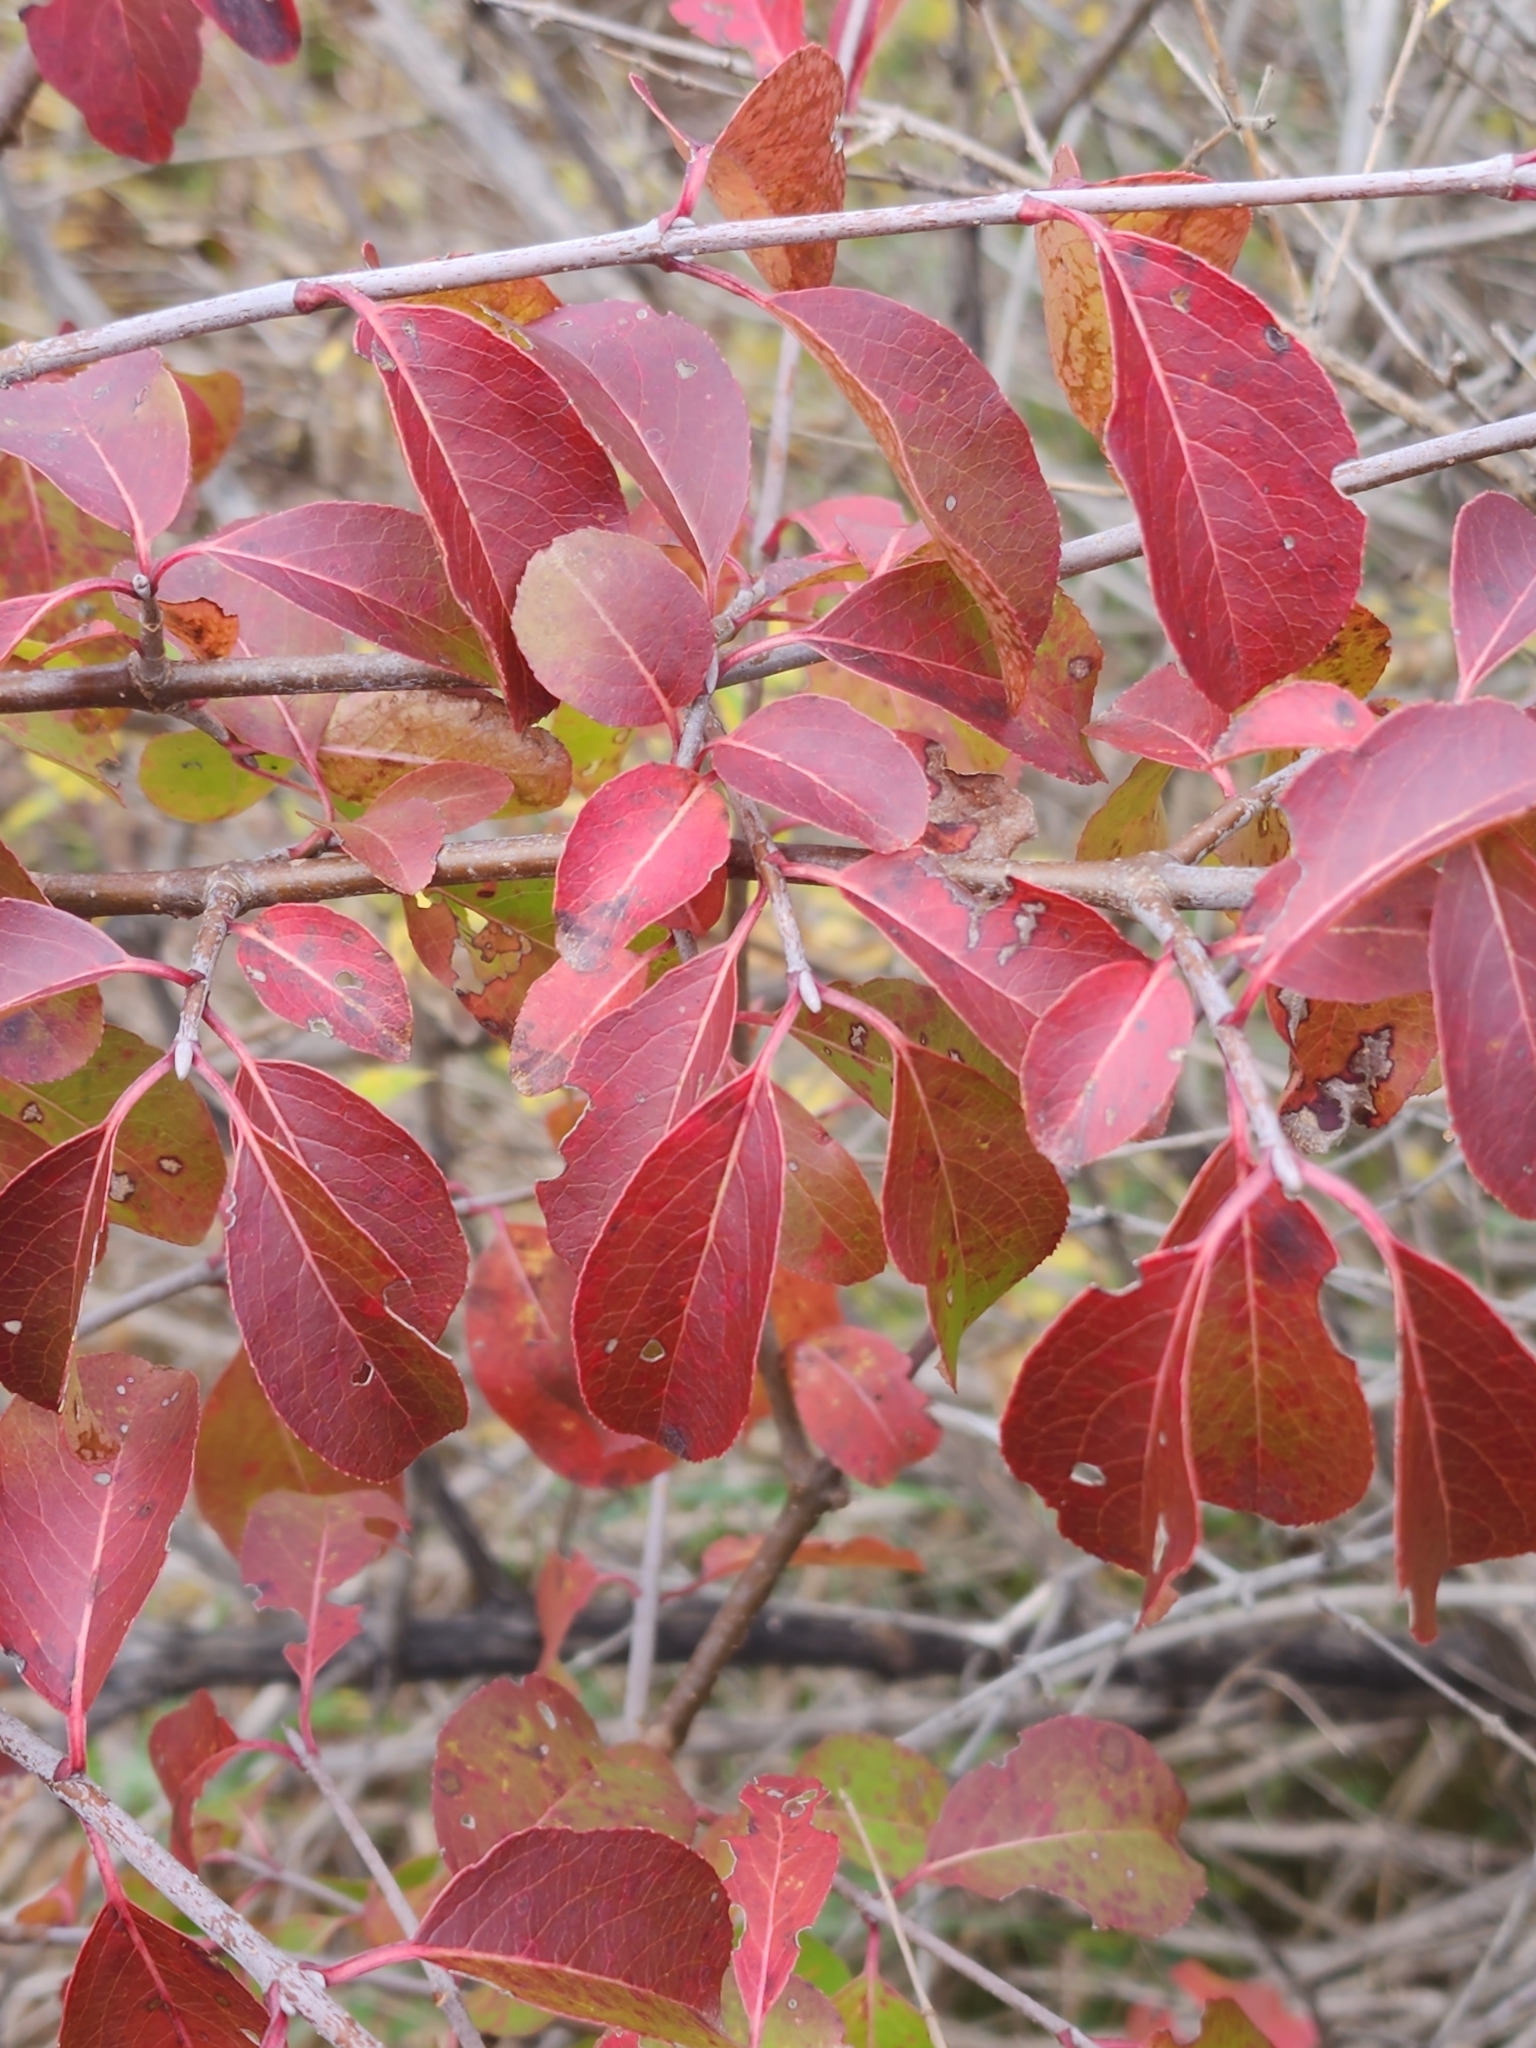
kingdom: Plantae
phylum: Tracheophyta
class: Magnoliopsida
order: Dipsacales
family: Viburnaceae
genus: Viburnum
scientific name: Viburnum prunifolium
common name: Black haw
